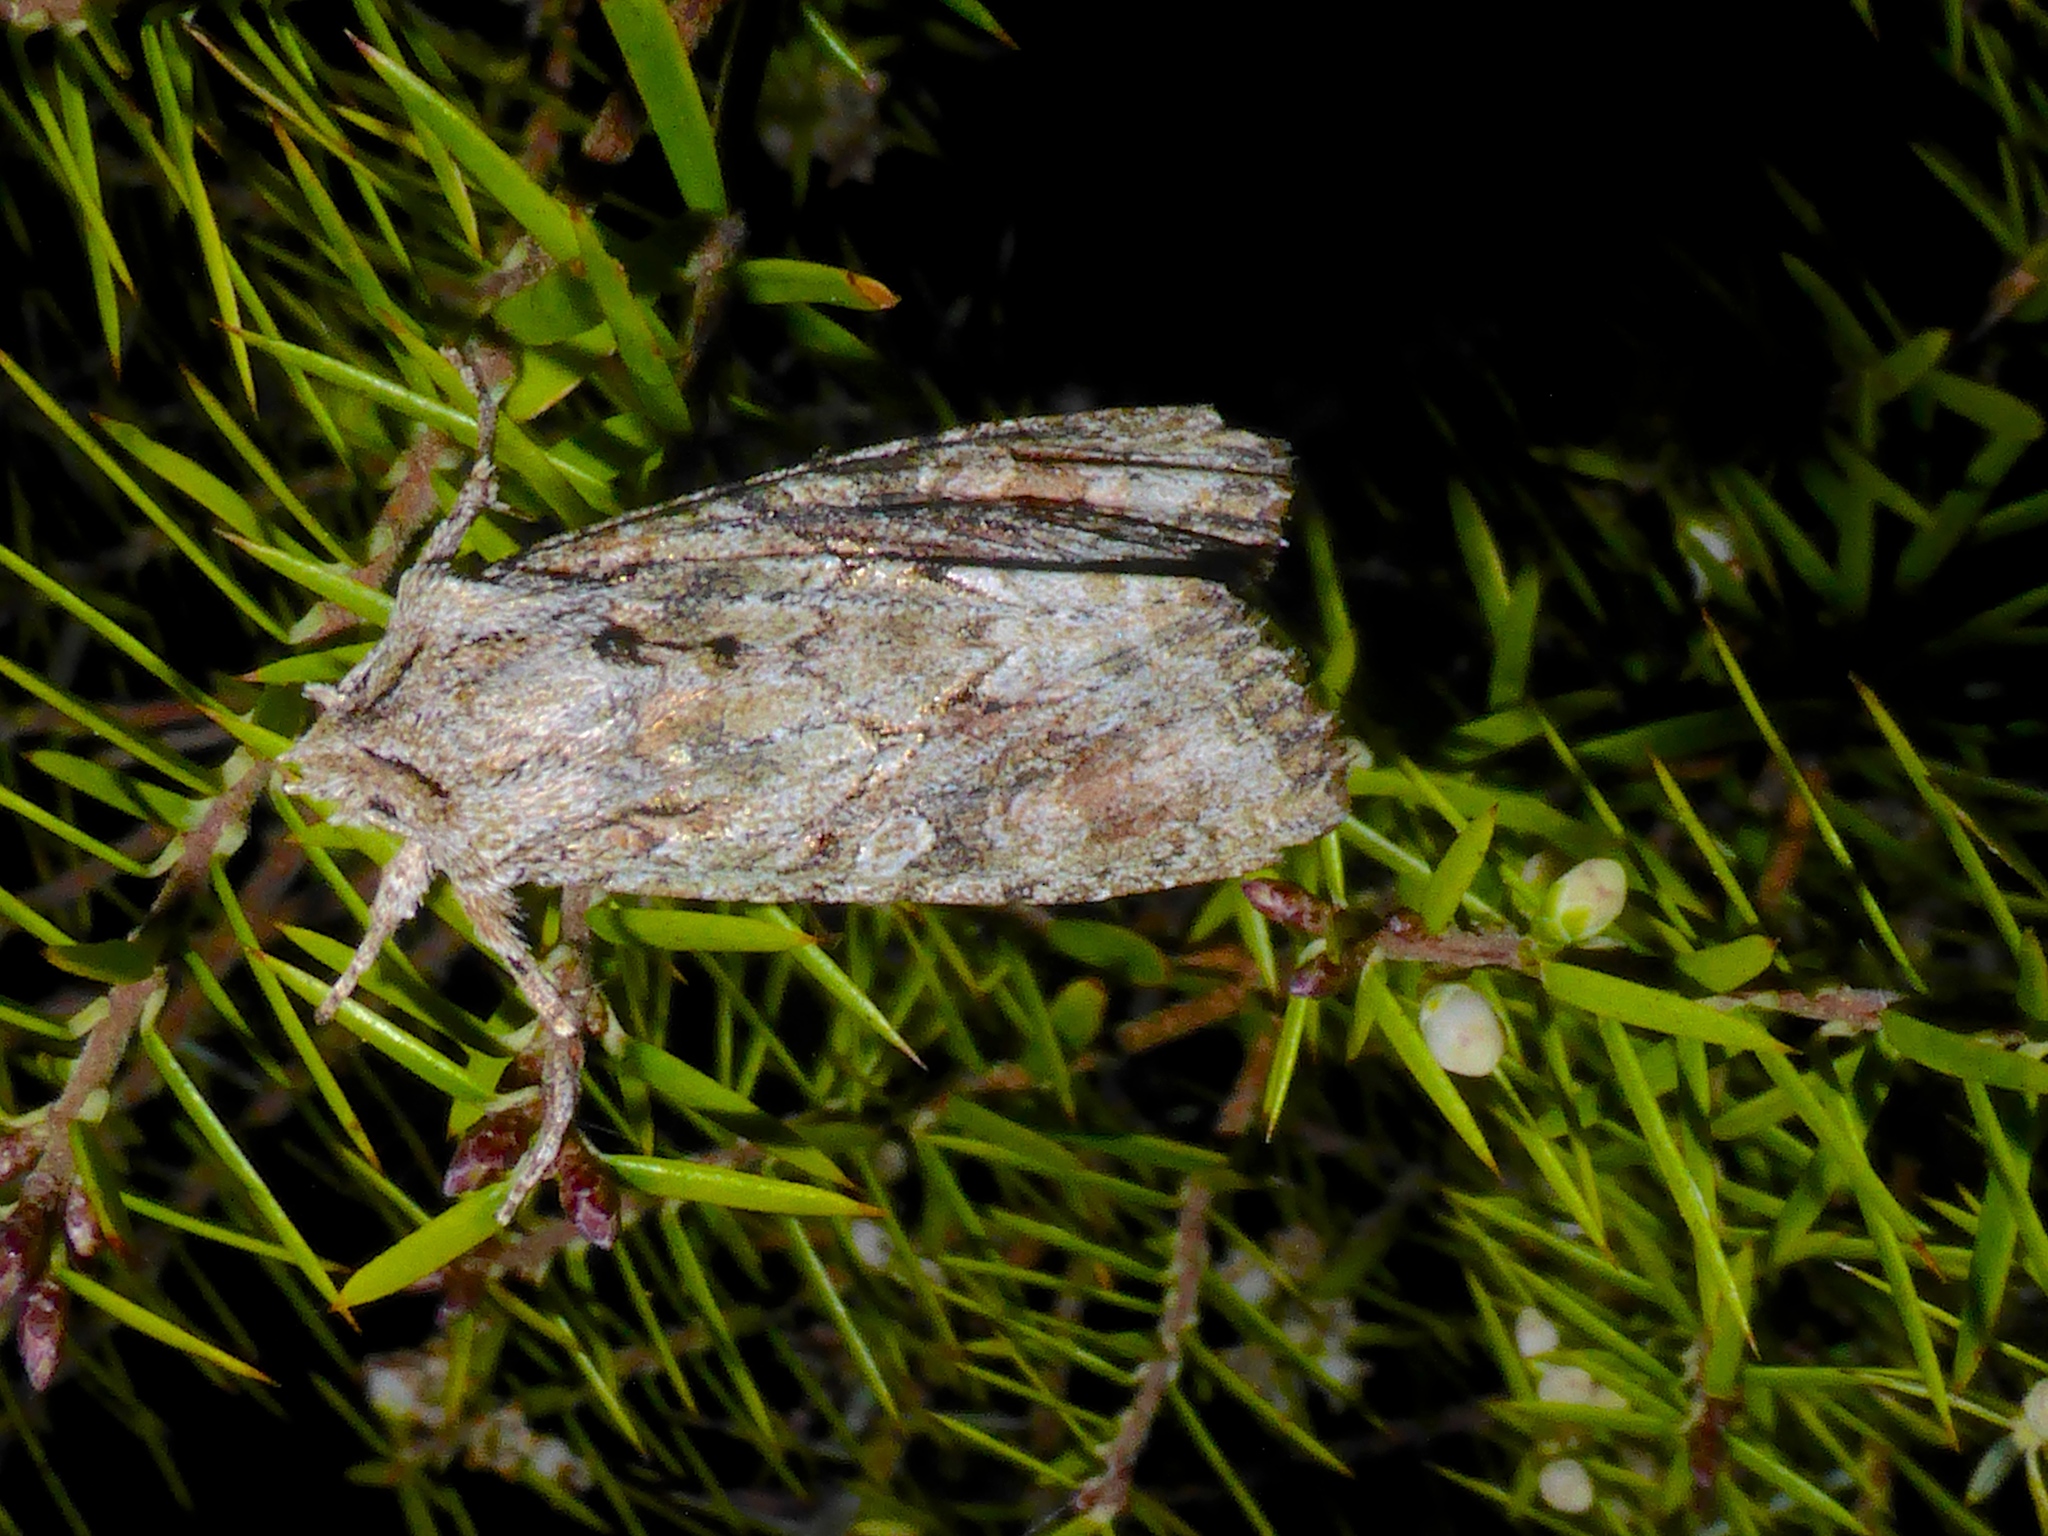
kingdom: Animalia
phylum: Arthropoda
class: Insecta
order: Lepidoptera
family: Noctuidae
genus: Ichneutica
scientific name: Ichneutica
